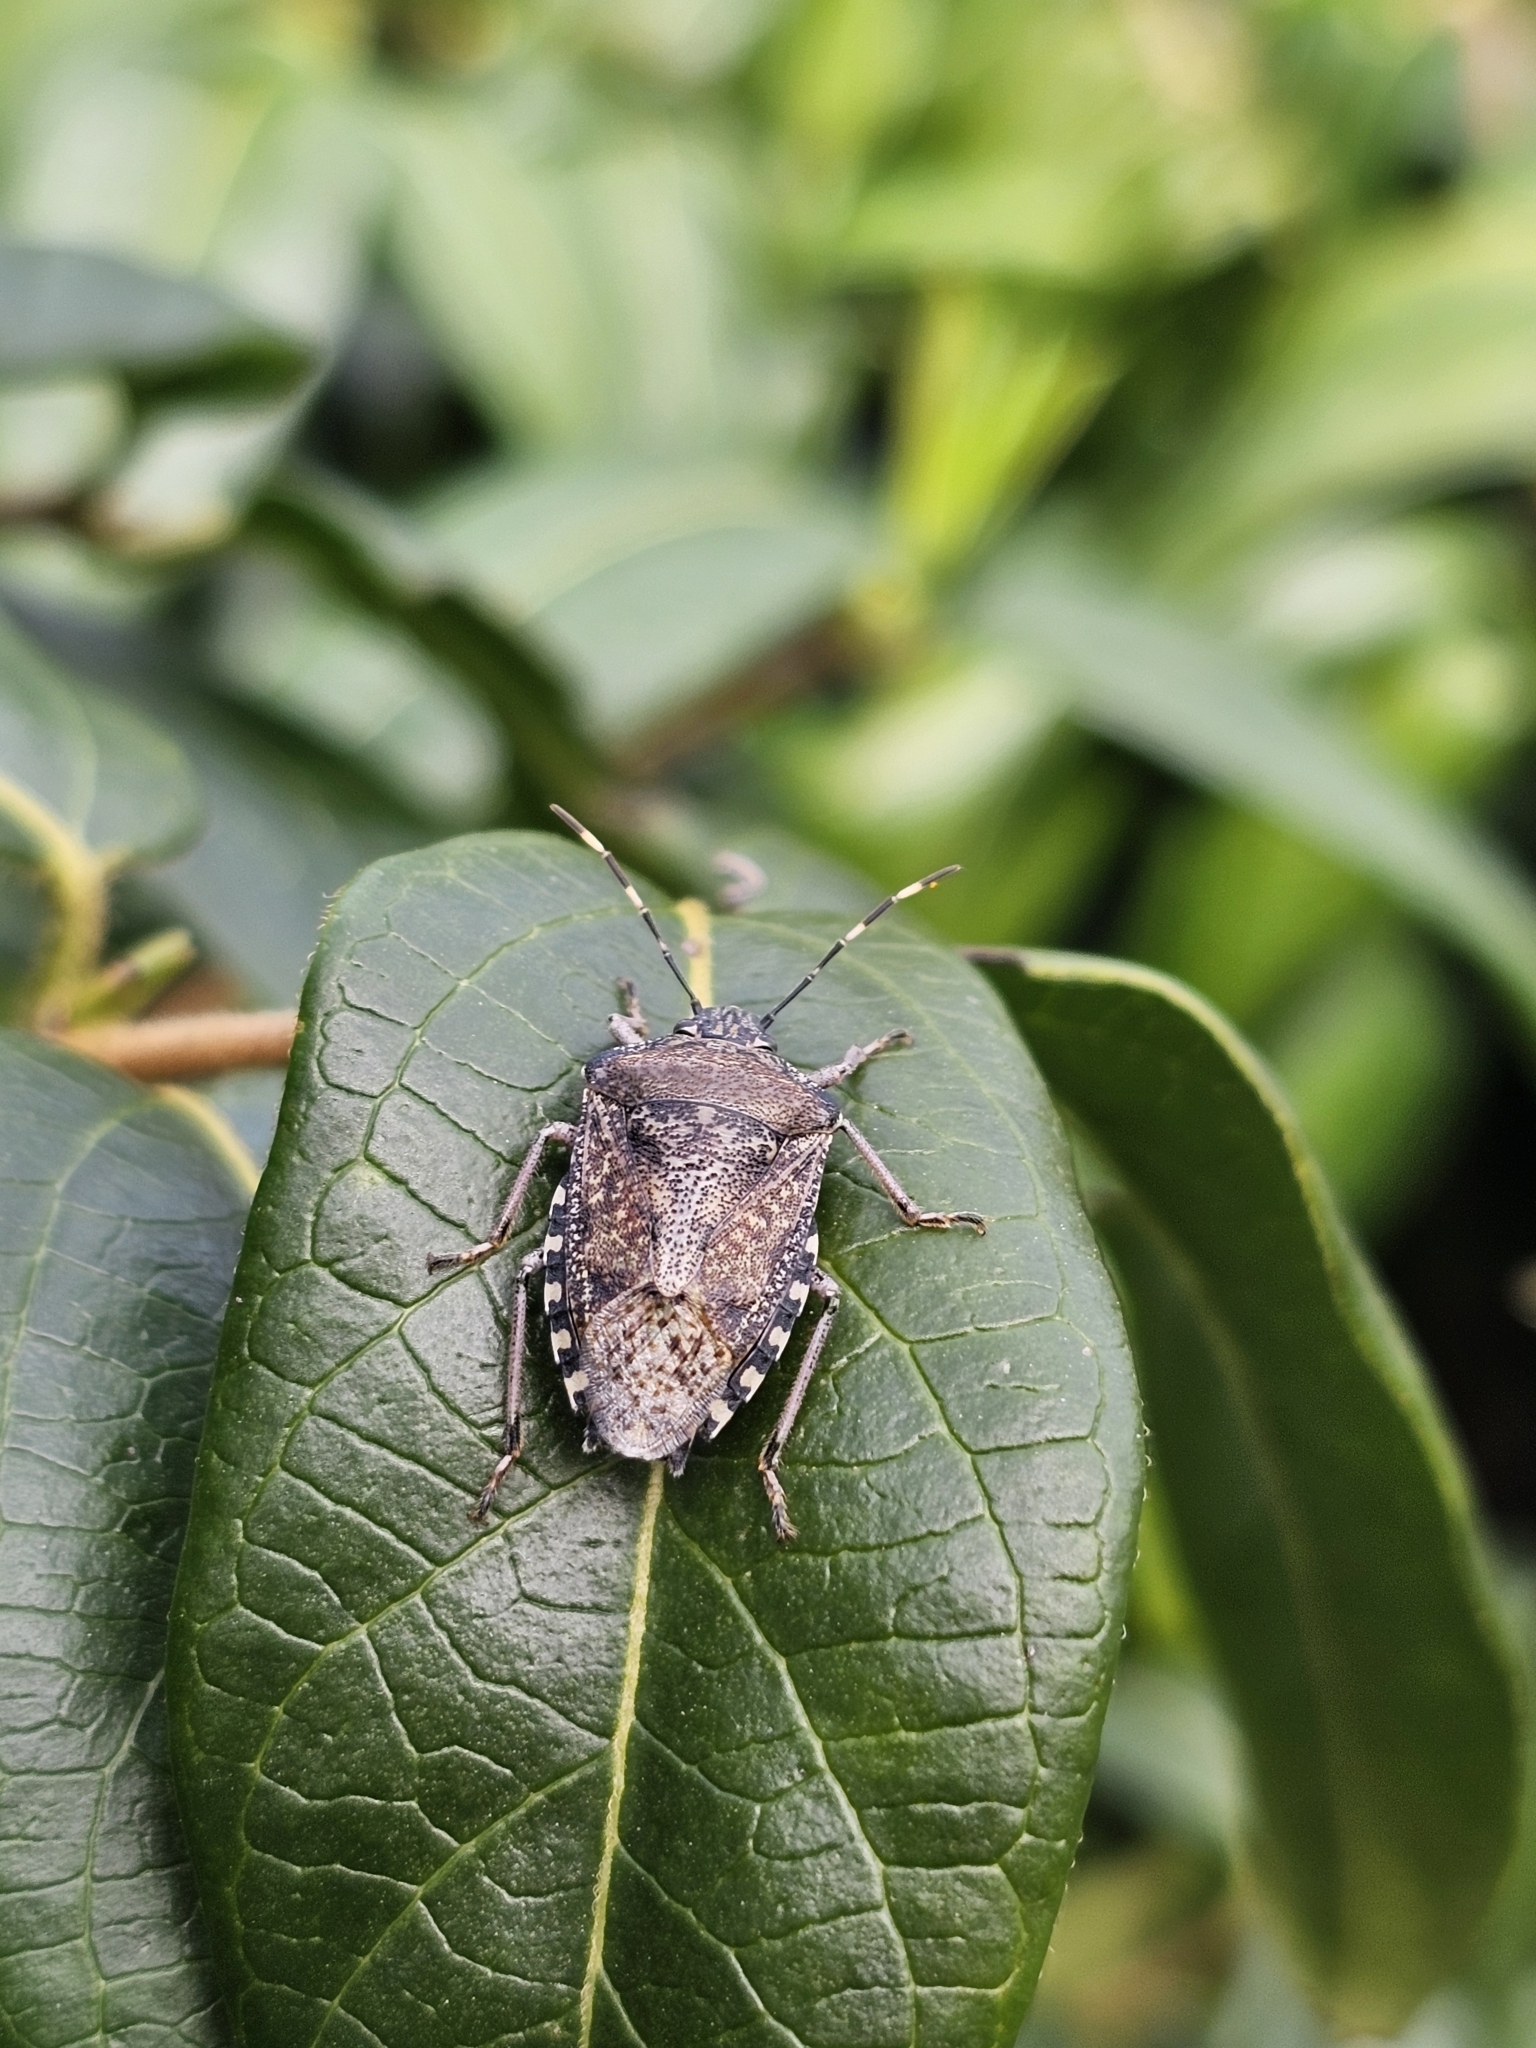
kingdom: Animalia
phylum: Arthropoda
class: Insecta
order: Hemiptera
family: Pentatomidae
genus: Rhaphigaster
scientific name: Rhaphigaster nebulosa
